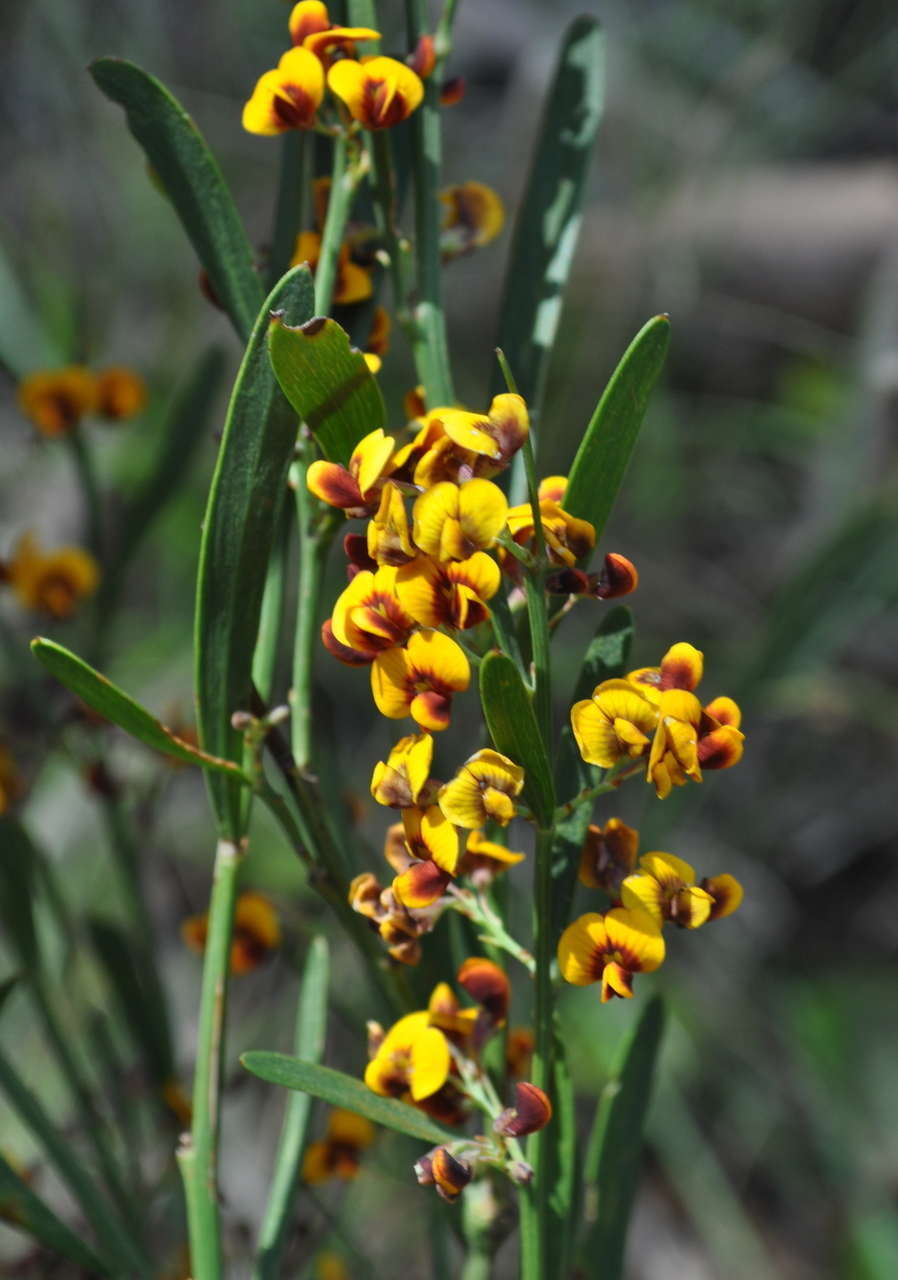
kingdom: Plantae
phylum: Tracheophyta
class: Magnoliopsida
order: Fabales
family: Fabaceae
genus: Daviesia
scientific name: Daviesia leptophylla
